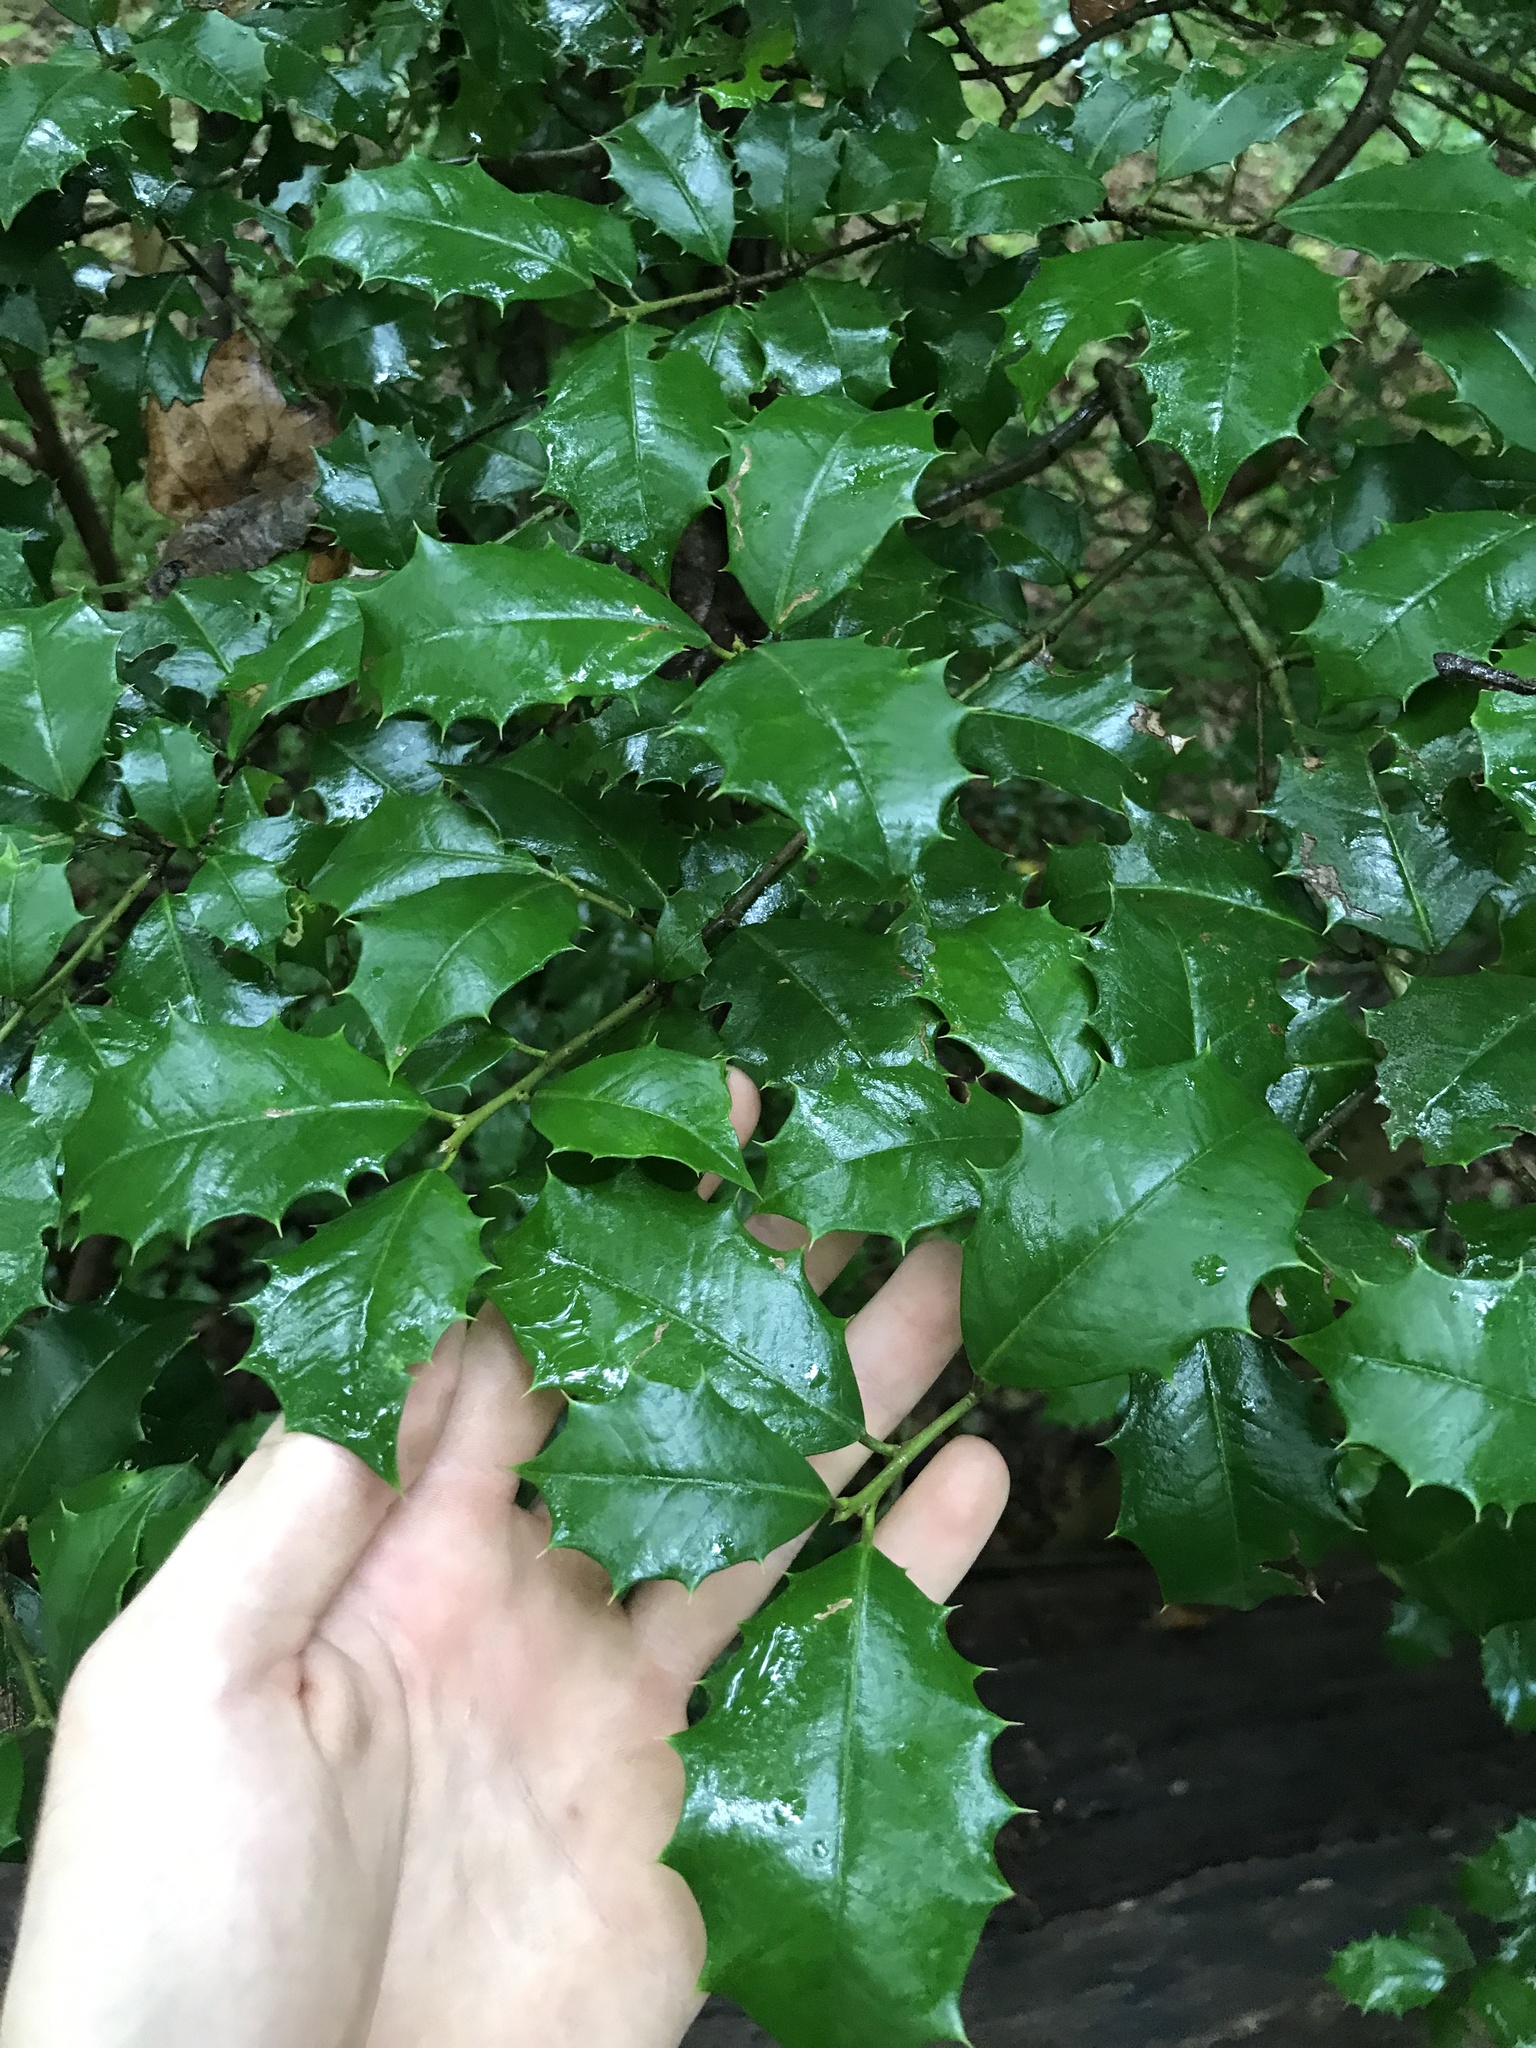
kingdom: Plantae
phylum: Tracheophyta
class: Magnoliopsida
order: Aquifoliales
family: Aquifoliaceae
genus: Ilex
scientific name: Ilex opaca
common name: American holly
